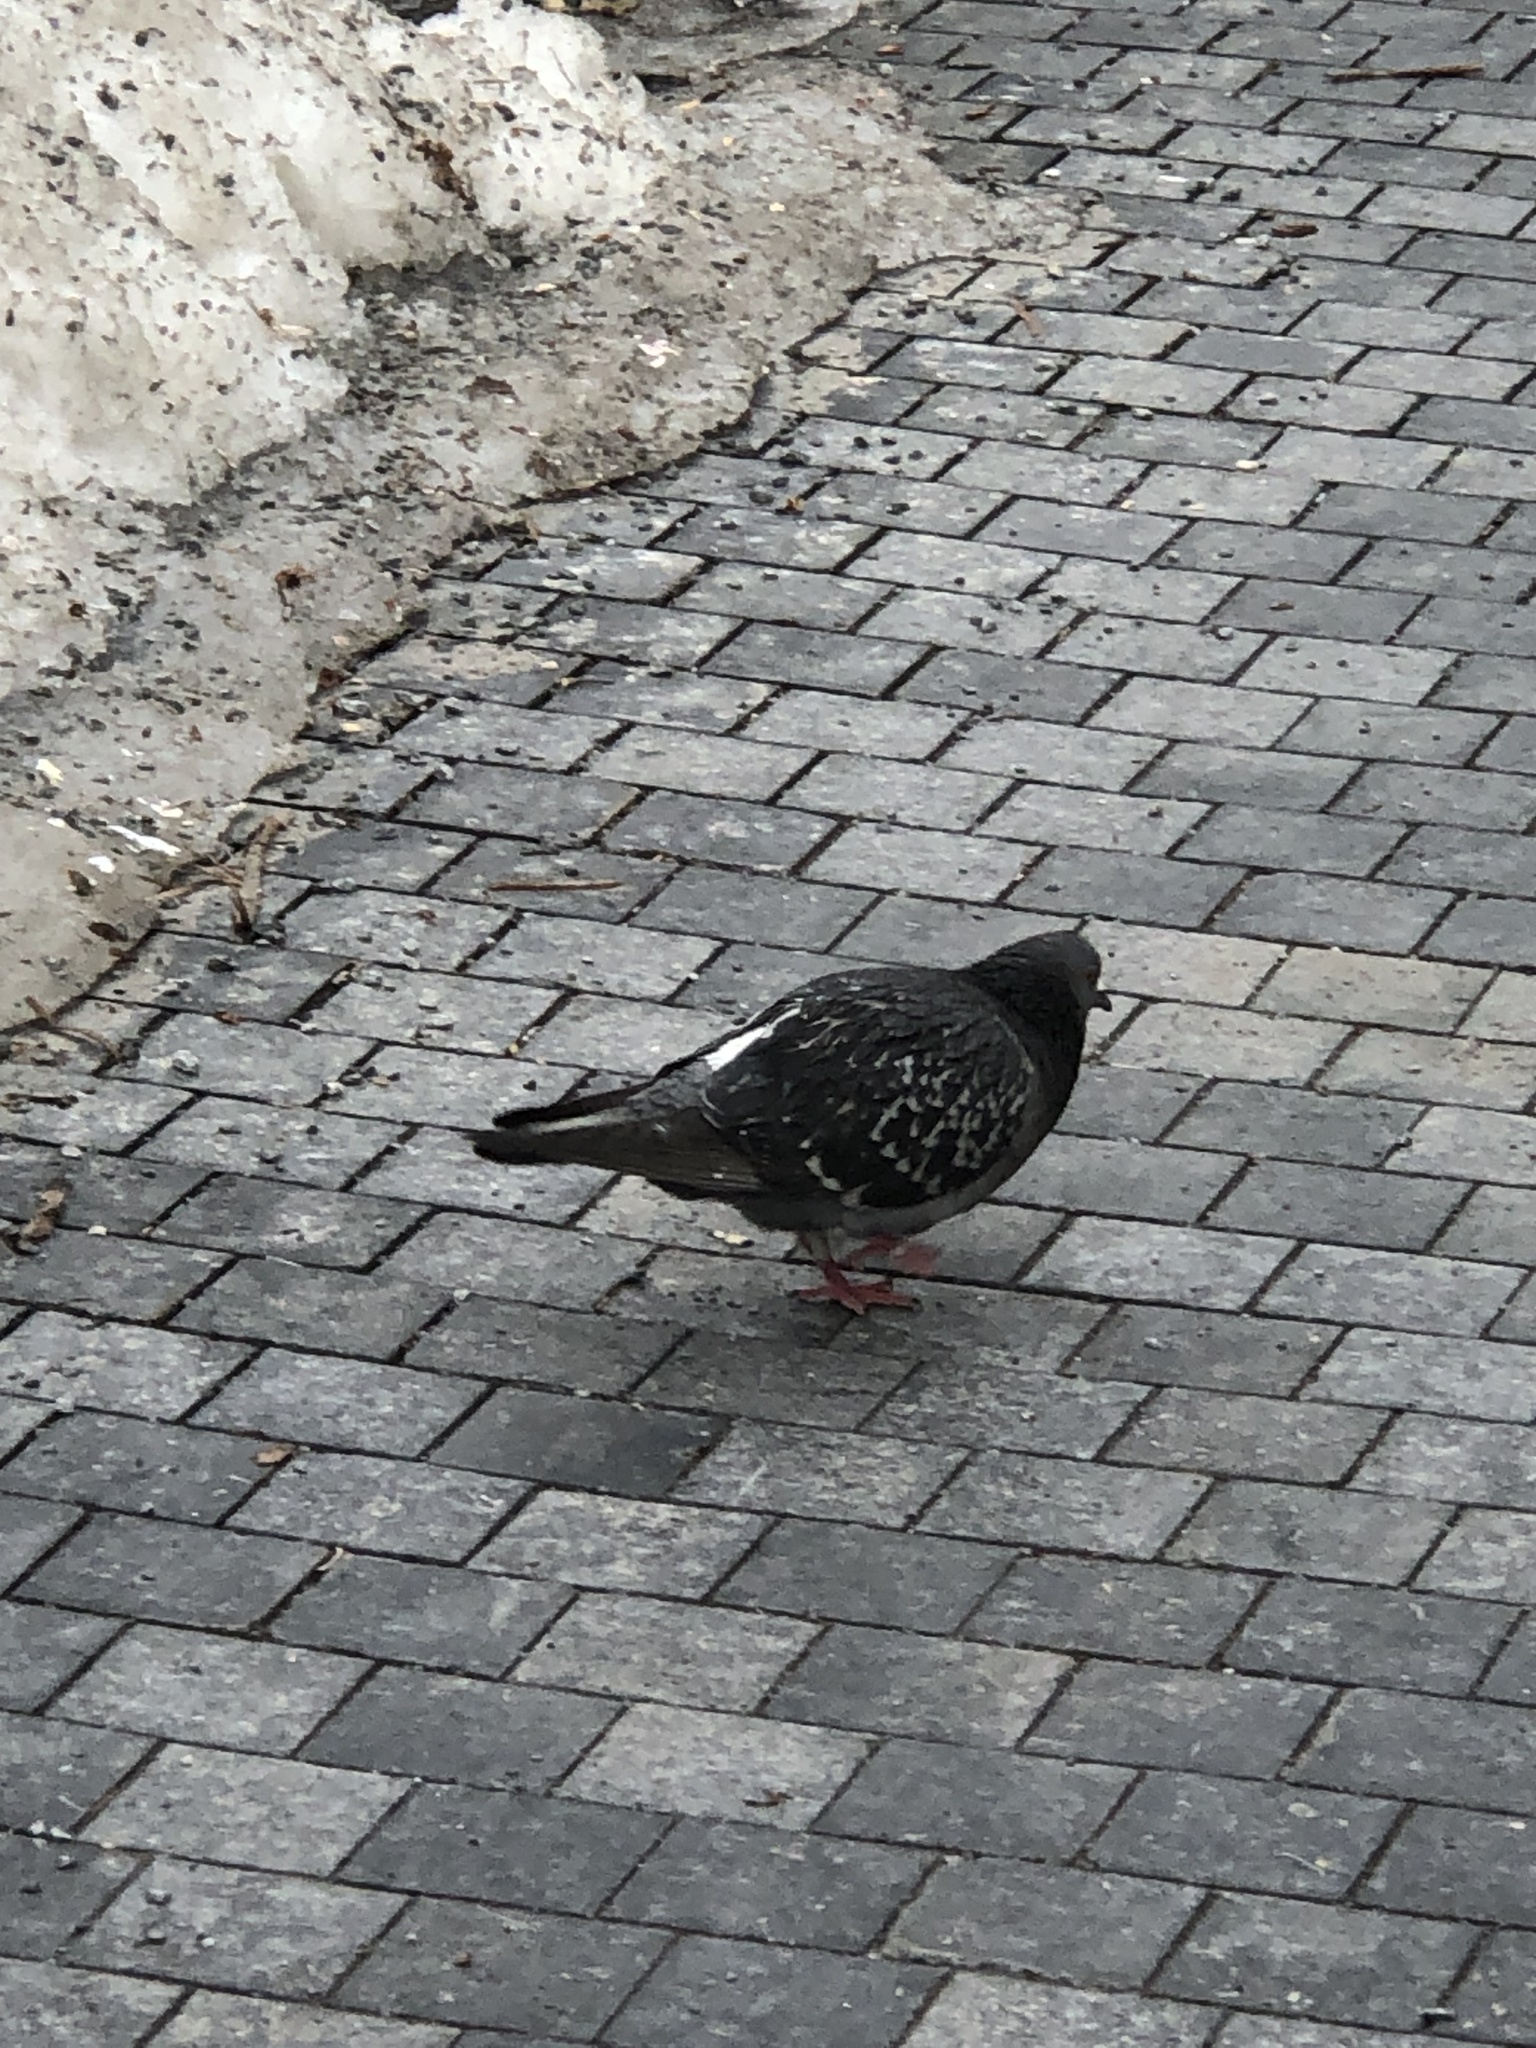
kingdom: Animalia
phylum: Chordata
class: Aves
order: Columbiformes
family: Columbidae
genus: Columba
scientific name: Columba livia
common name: Rock pigeon
